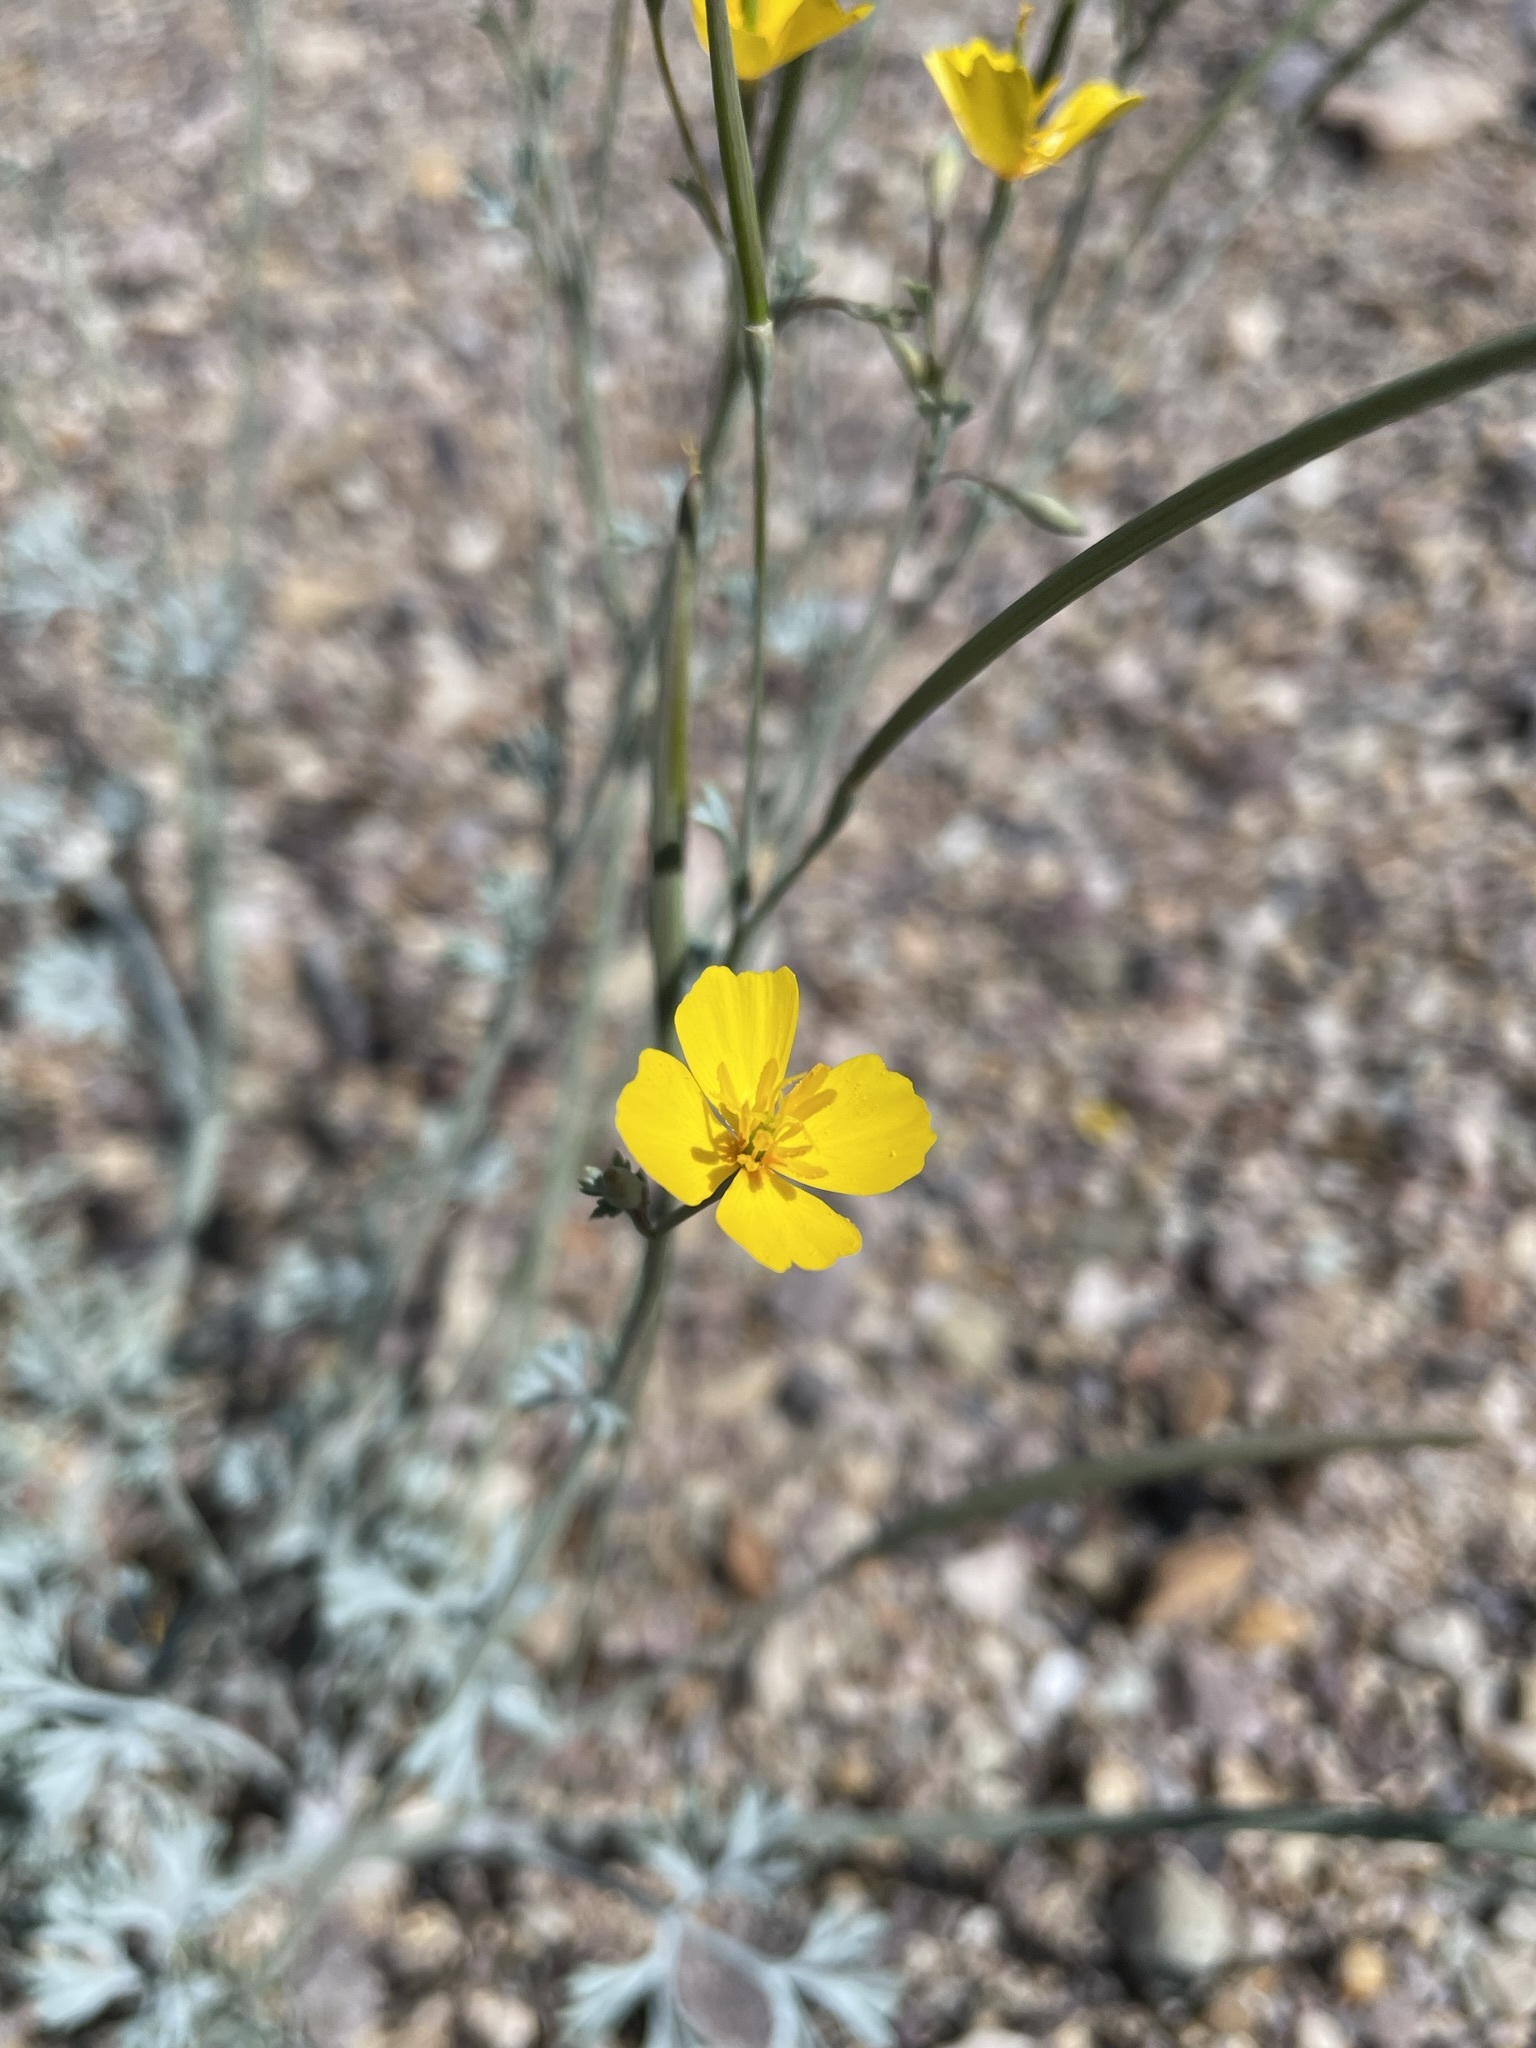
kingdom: Plantae
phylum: Tracheophyta
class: Magnoliopsida
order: Ranunculales
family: Papaveraceae
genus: Eschscholzia
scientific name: Eschscholzia minutiflora
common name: Small-flower california-poppy
